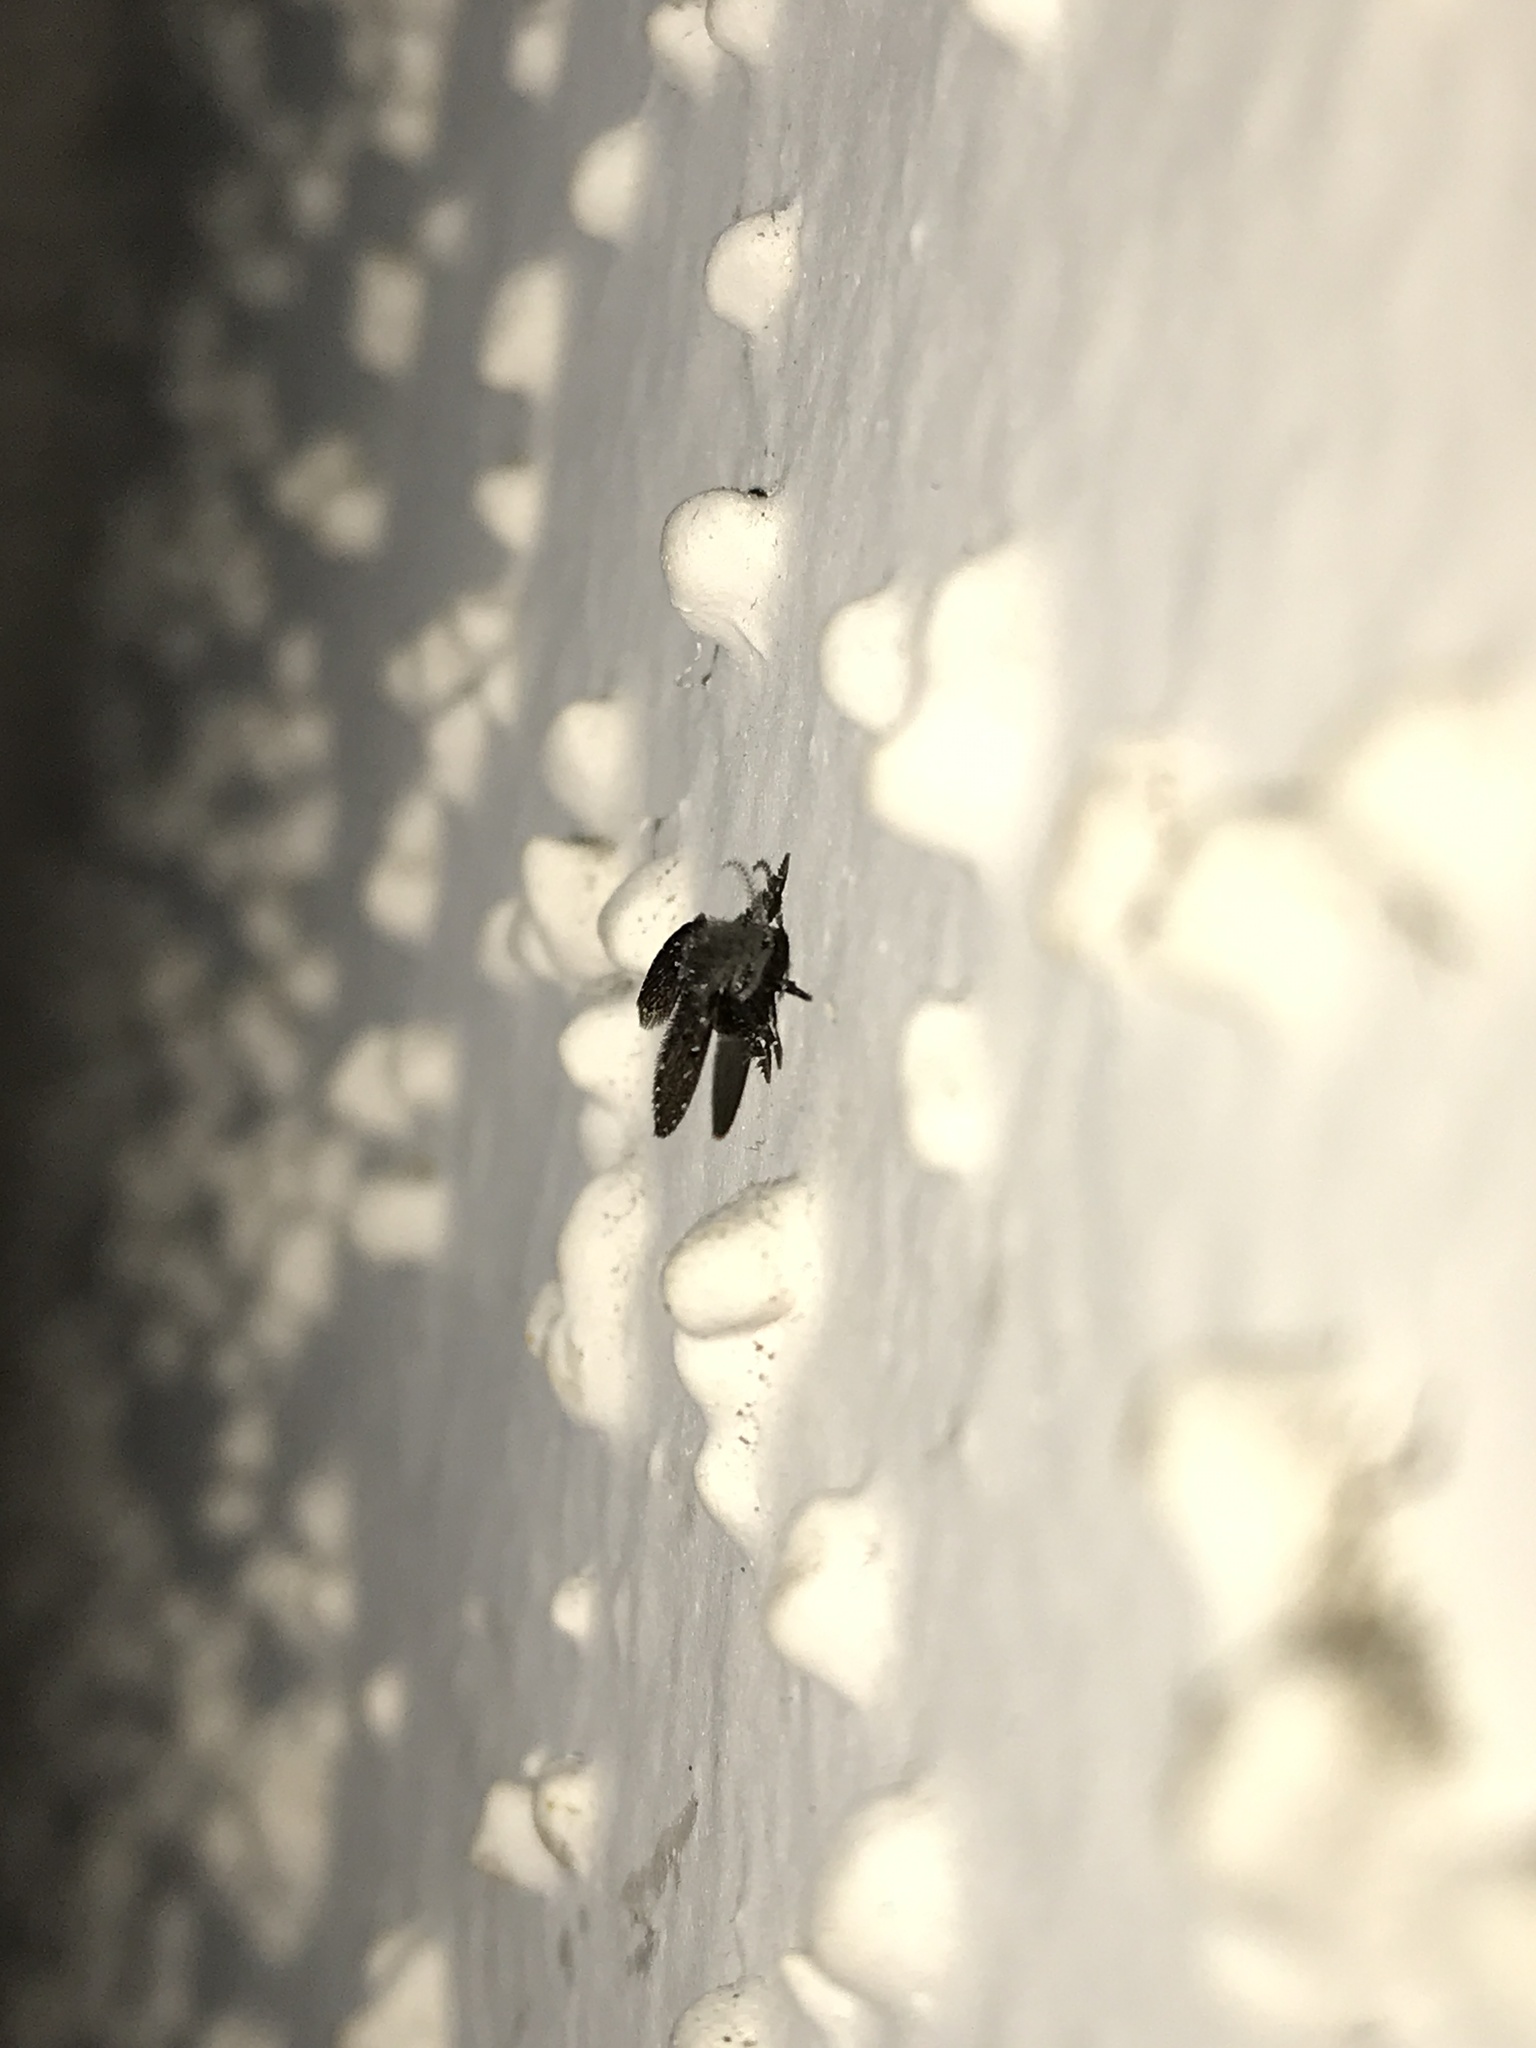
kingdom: Animalia
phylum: Arthropoda
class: Insecta
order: Diptera
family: Psychodidae
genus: Clogmia
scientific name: Clogmia albipunctatus
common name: White-spotted moth fly
